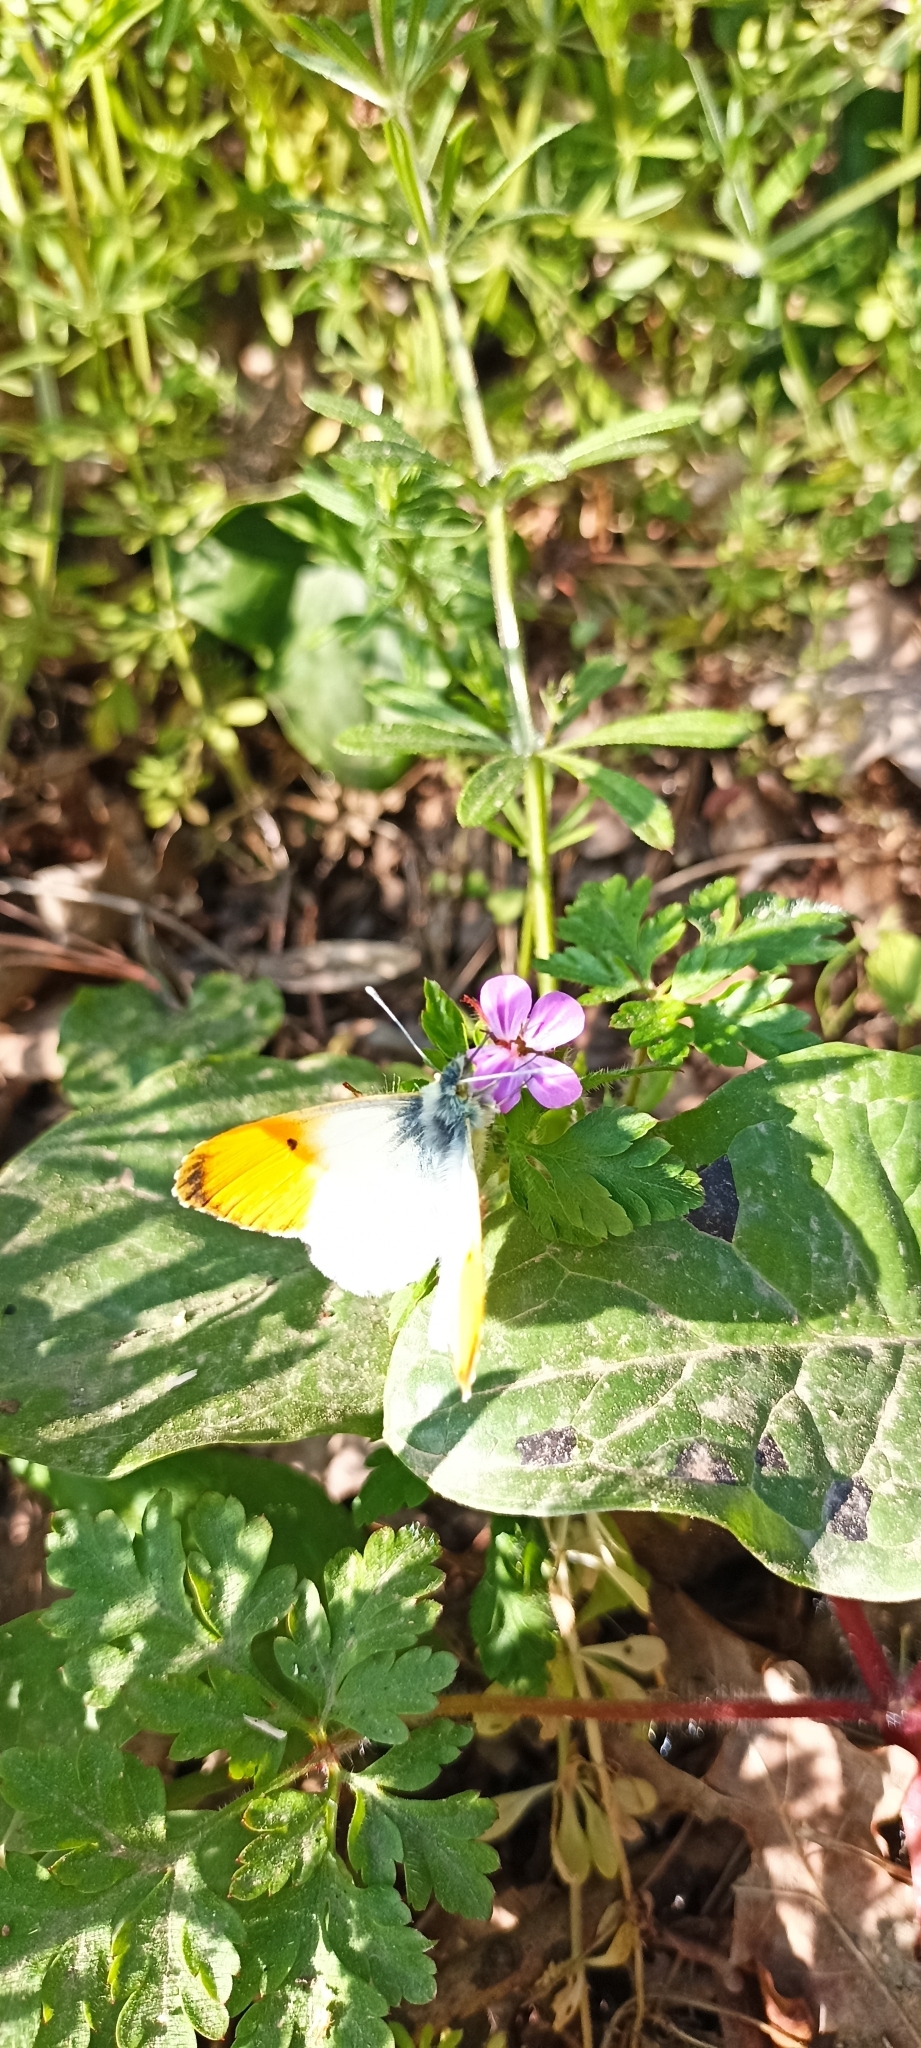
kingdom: Animalia
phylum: Arthropoda
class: Insecta
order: Lepidoptera
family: Pieridae
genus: Anthocharis
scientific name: Anthocharis cardamines
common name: Orange-tip
